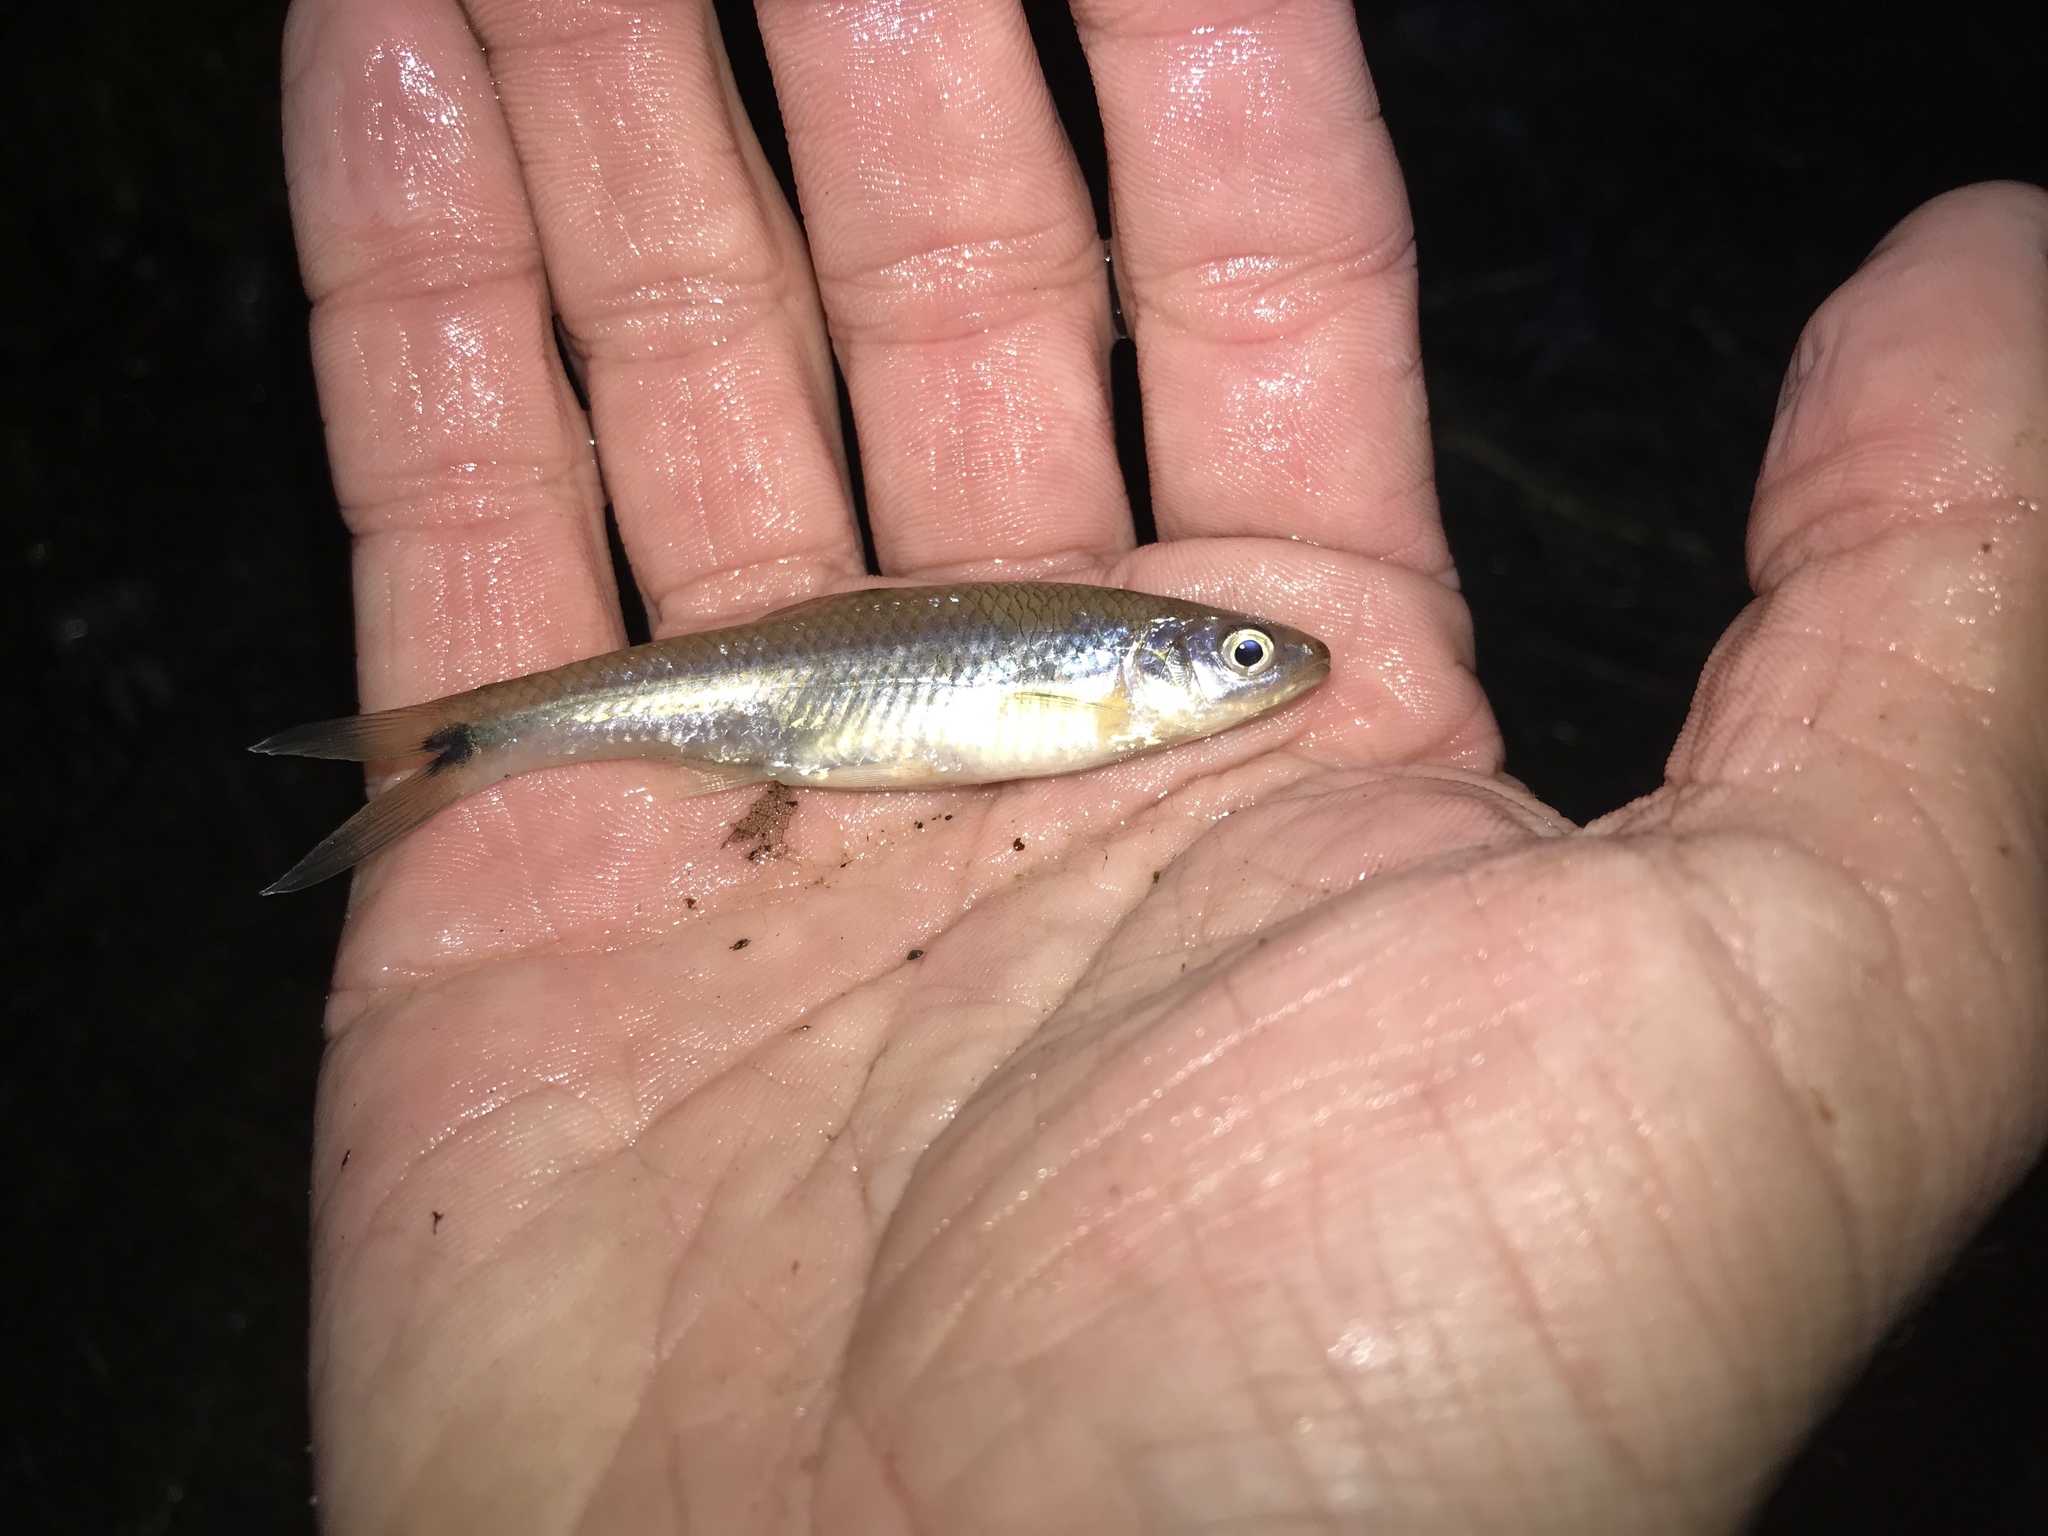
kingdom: Animalia
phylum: Chordata
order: Cypriniformes
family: Cyprinidae
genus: Cyprinella
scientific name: Cyprinella venusta
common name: Blacktail shiner
